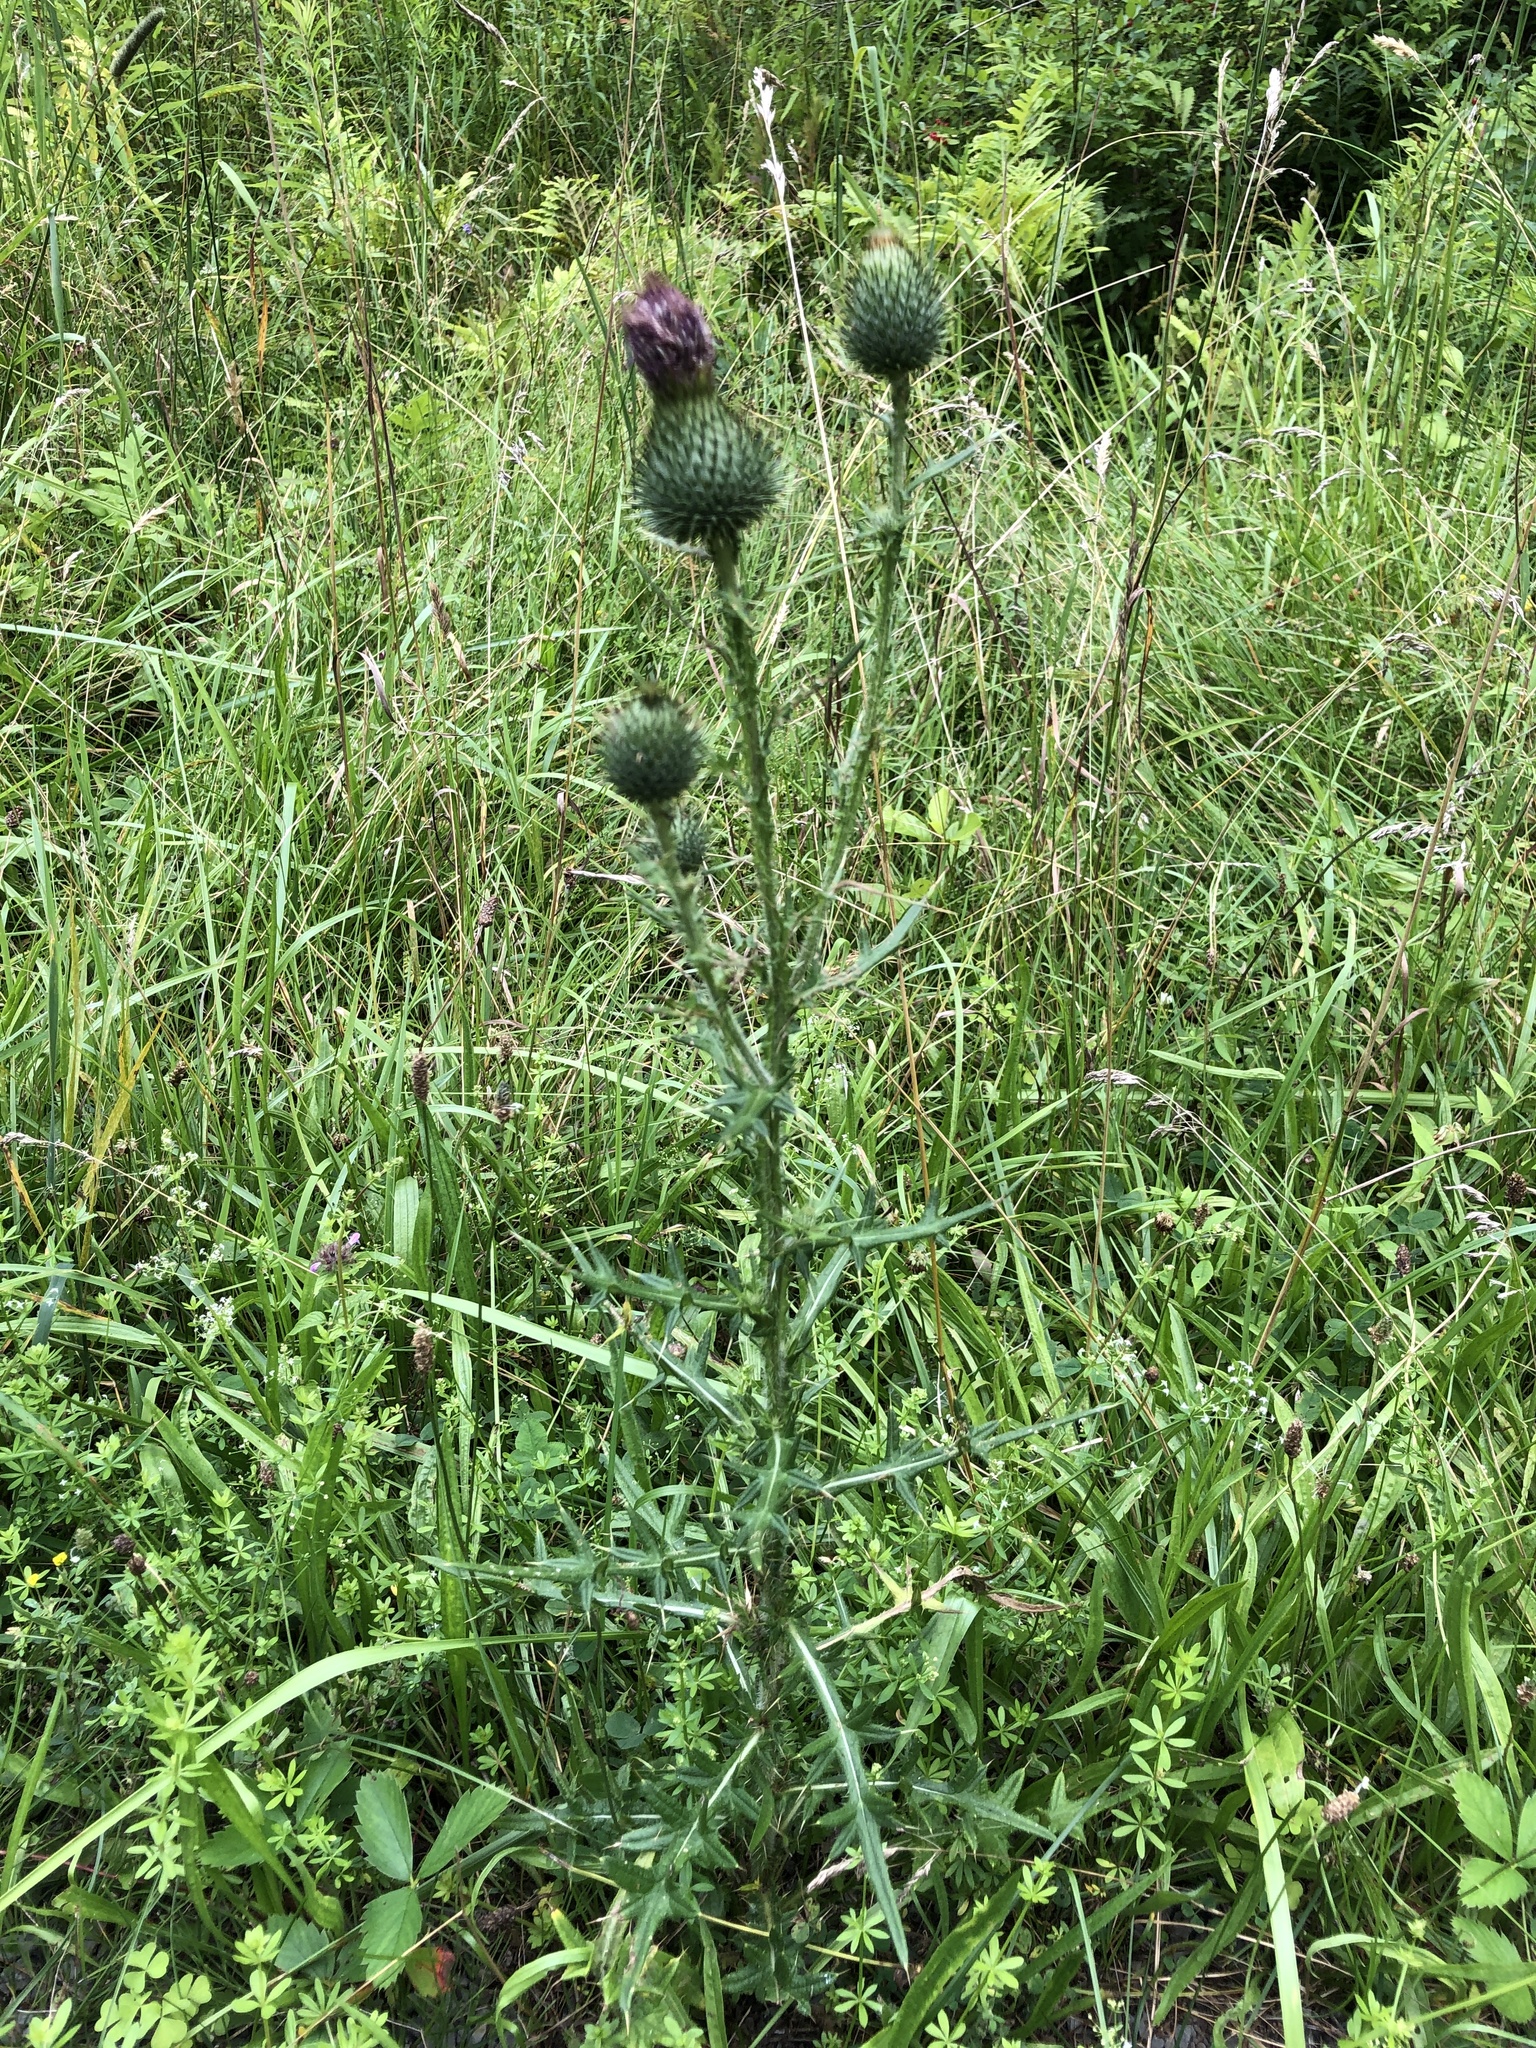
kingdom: Plantae
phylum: Tracheophyta
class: Magnoliopsida
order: Asterales
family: Asteraceae
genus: Cirsium
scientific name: Cirsium vulgare
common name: Bull thistle
